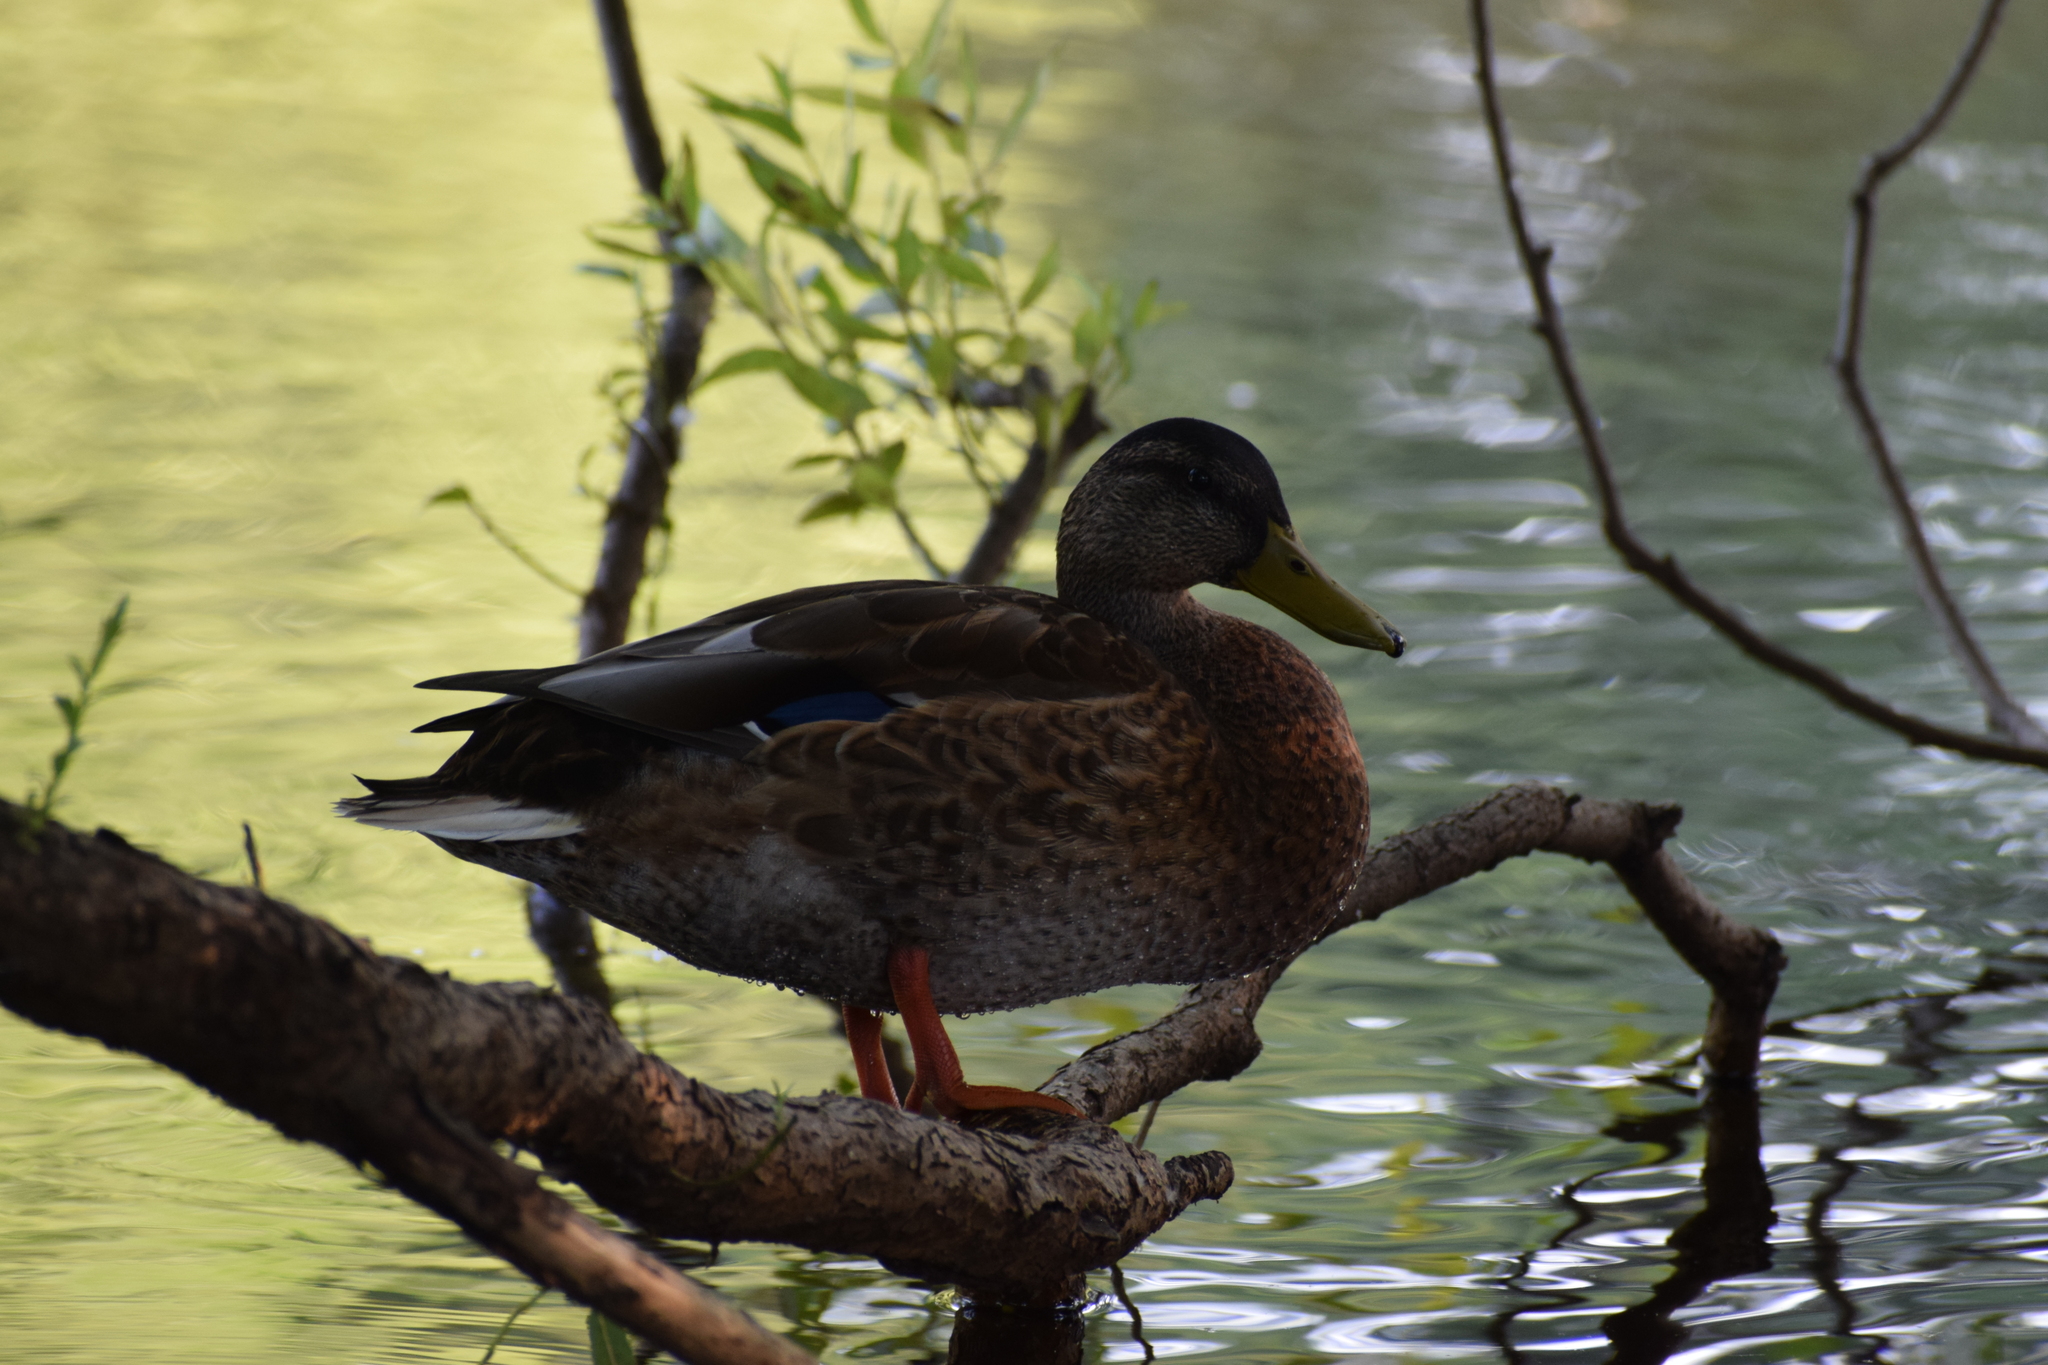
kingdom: Animalia
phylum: Chordata
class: Aves
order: Anseriformes
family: Anatidae
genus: Anas
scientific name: Anas platyrhynchos
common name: Mallard
